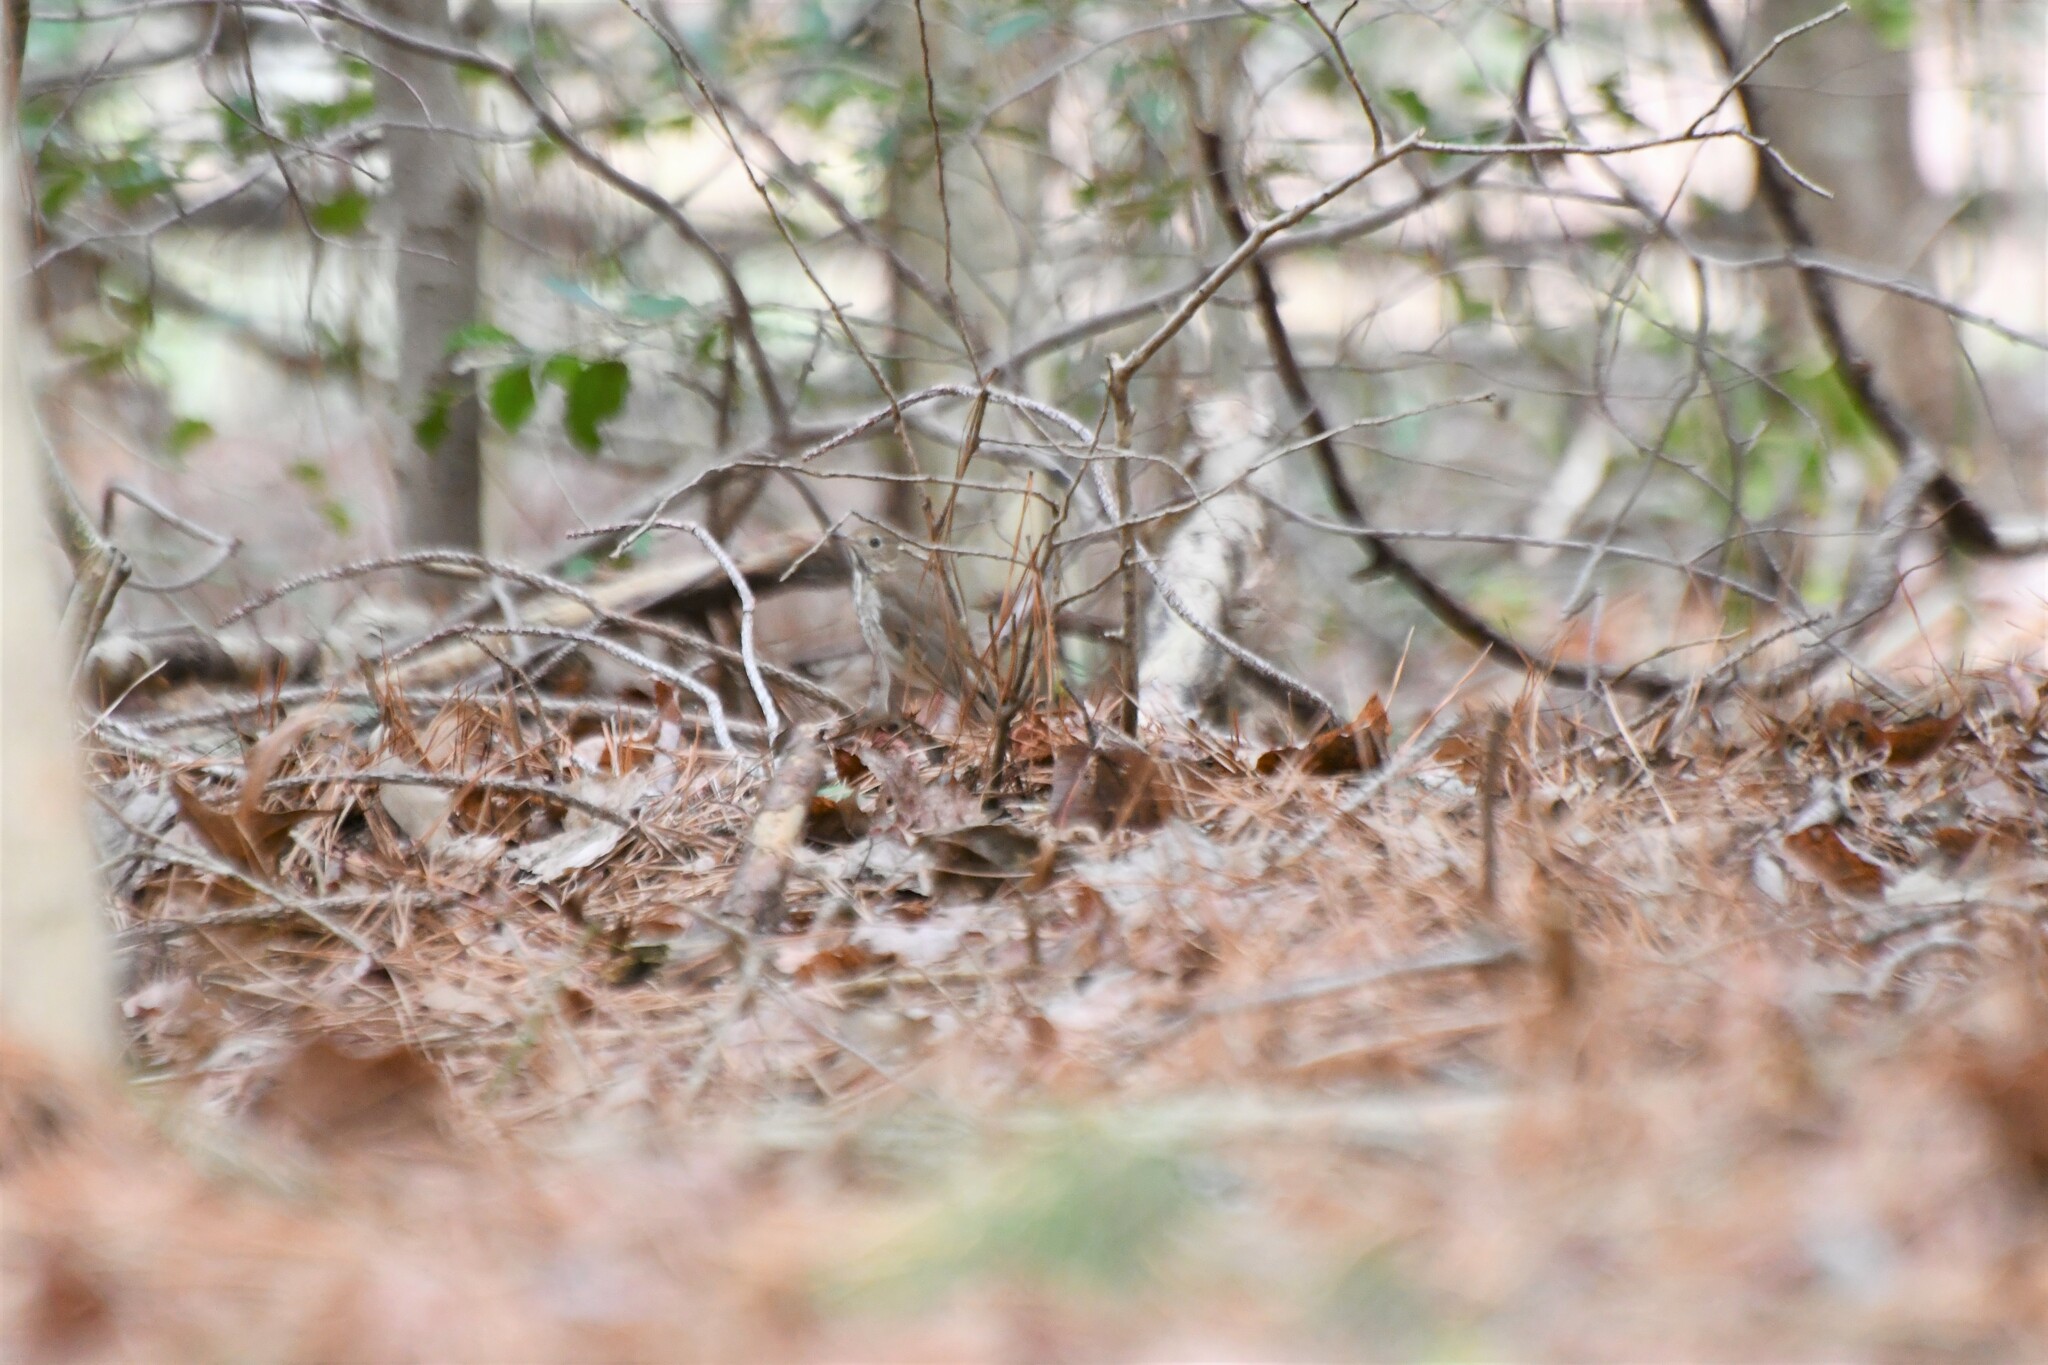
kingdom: Animalia
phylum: Chordata
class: Aves
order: Passeriformes
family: Turdidae
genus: Catharus
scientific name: Catharus guttatus
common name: Hermit thrush
